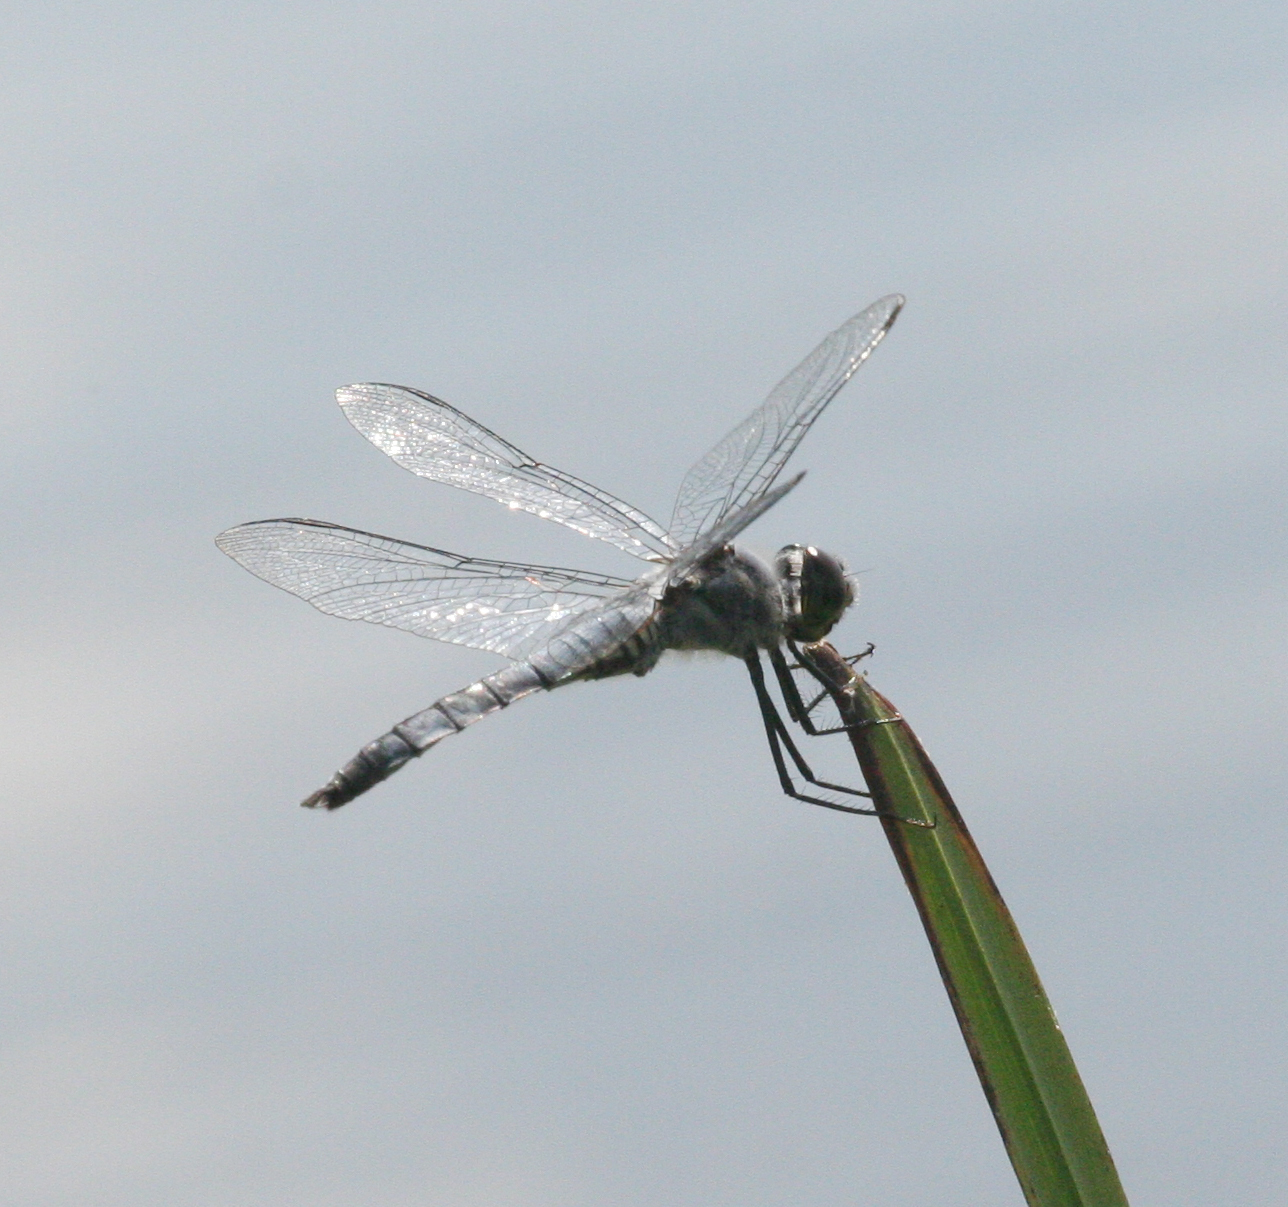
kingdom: Animalia
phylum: Arthropoda
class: Insecta
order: Odonata
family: Libellulidae
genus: Deielia
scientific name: Deielia phaon
